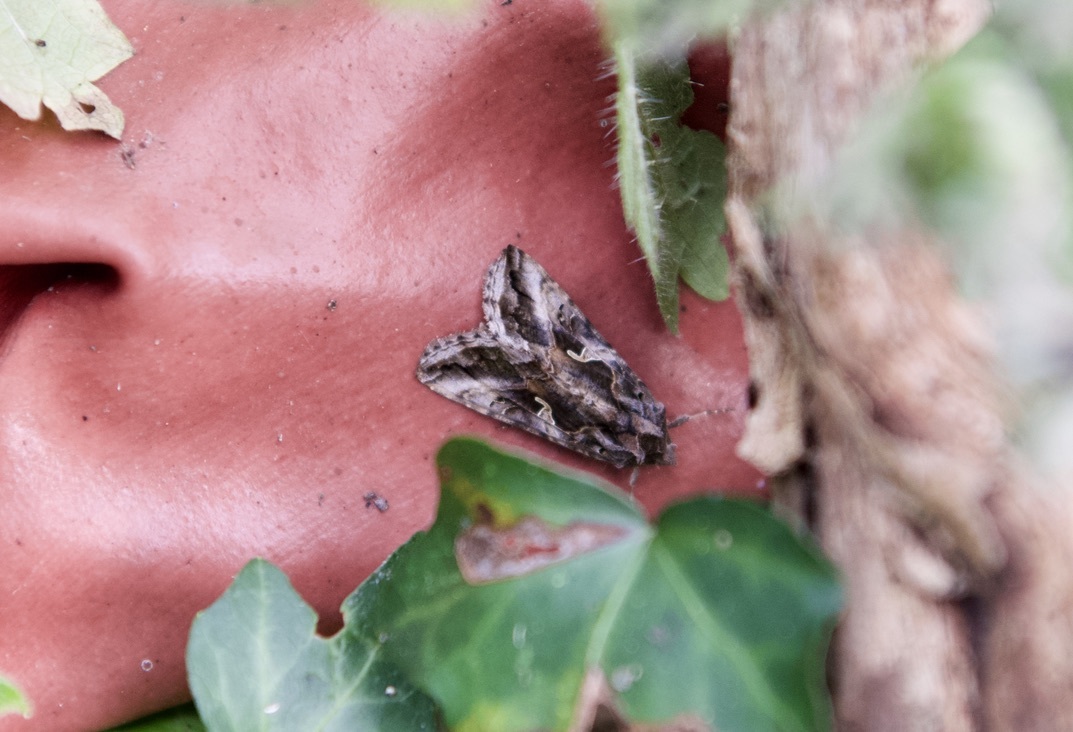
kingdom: Animalia
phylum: Arthropoda
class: Insecta
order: Lepidoptera
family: Noctuidae
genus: Autographa
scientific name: Autographa gamma
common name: Silver y
